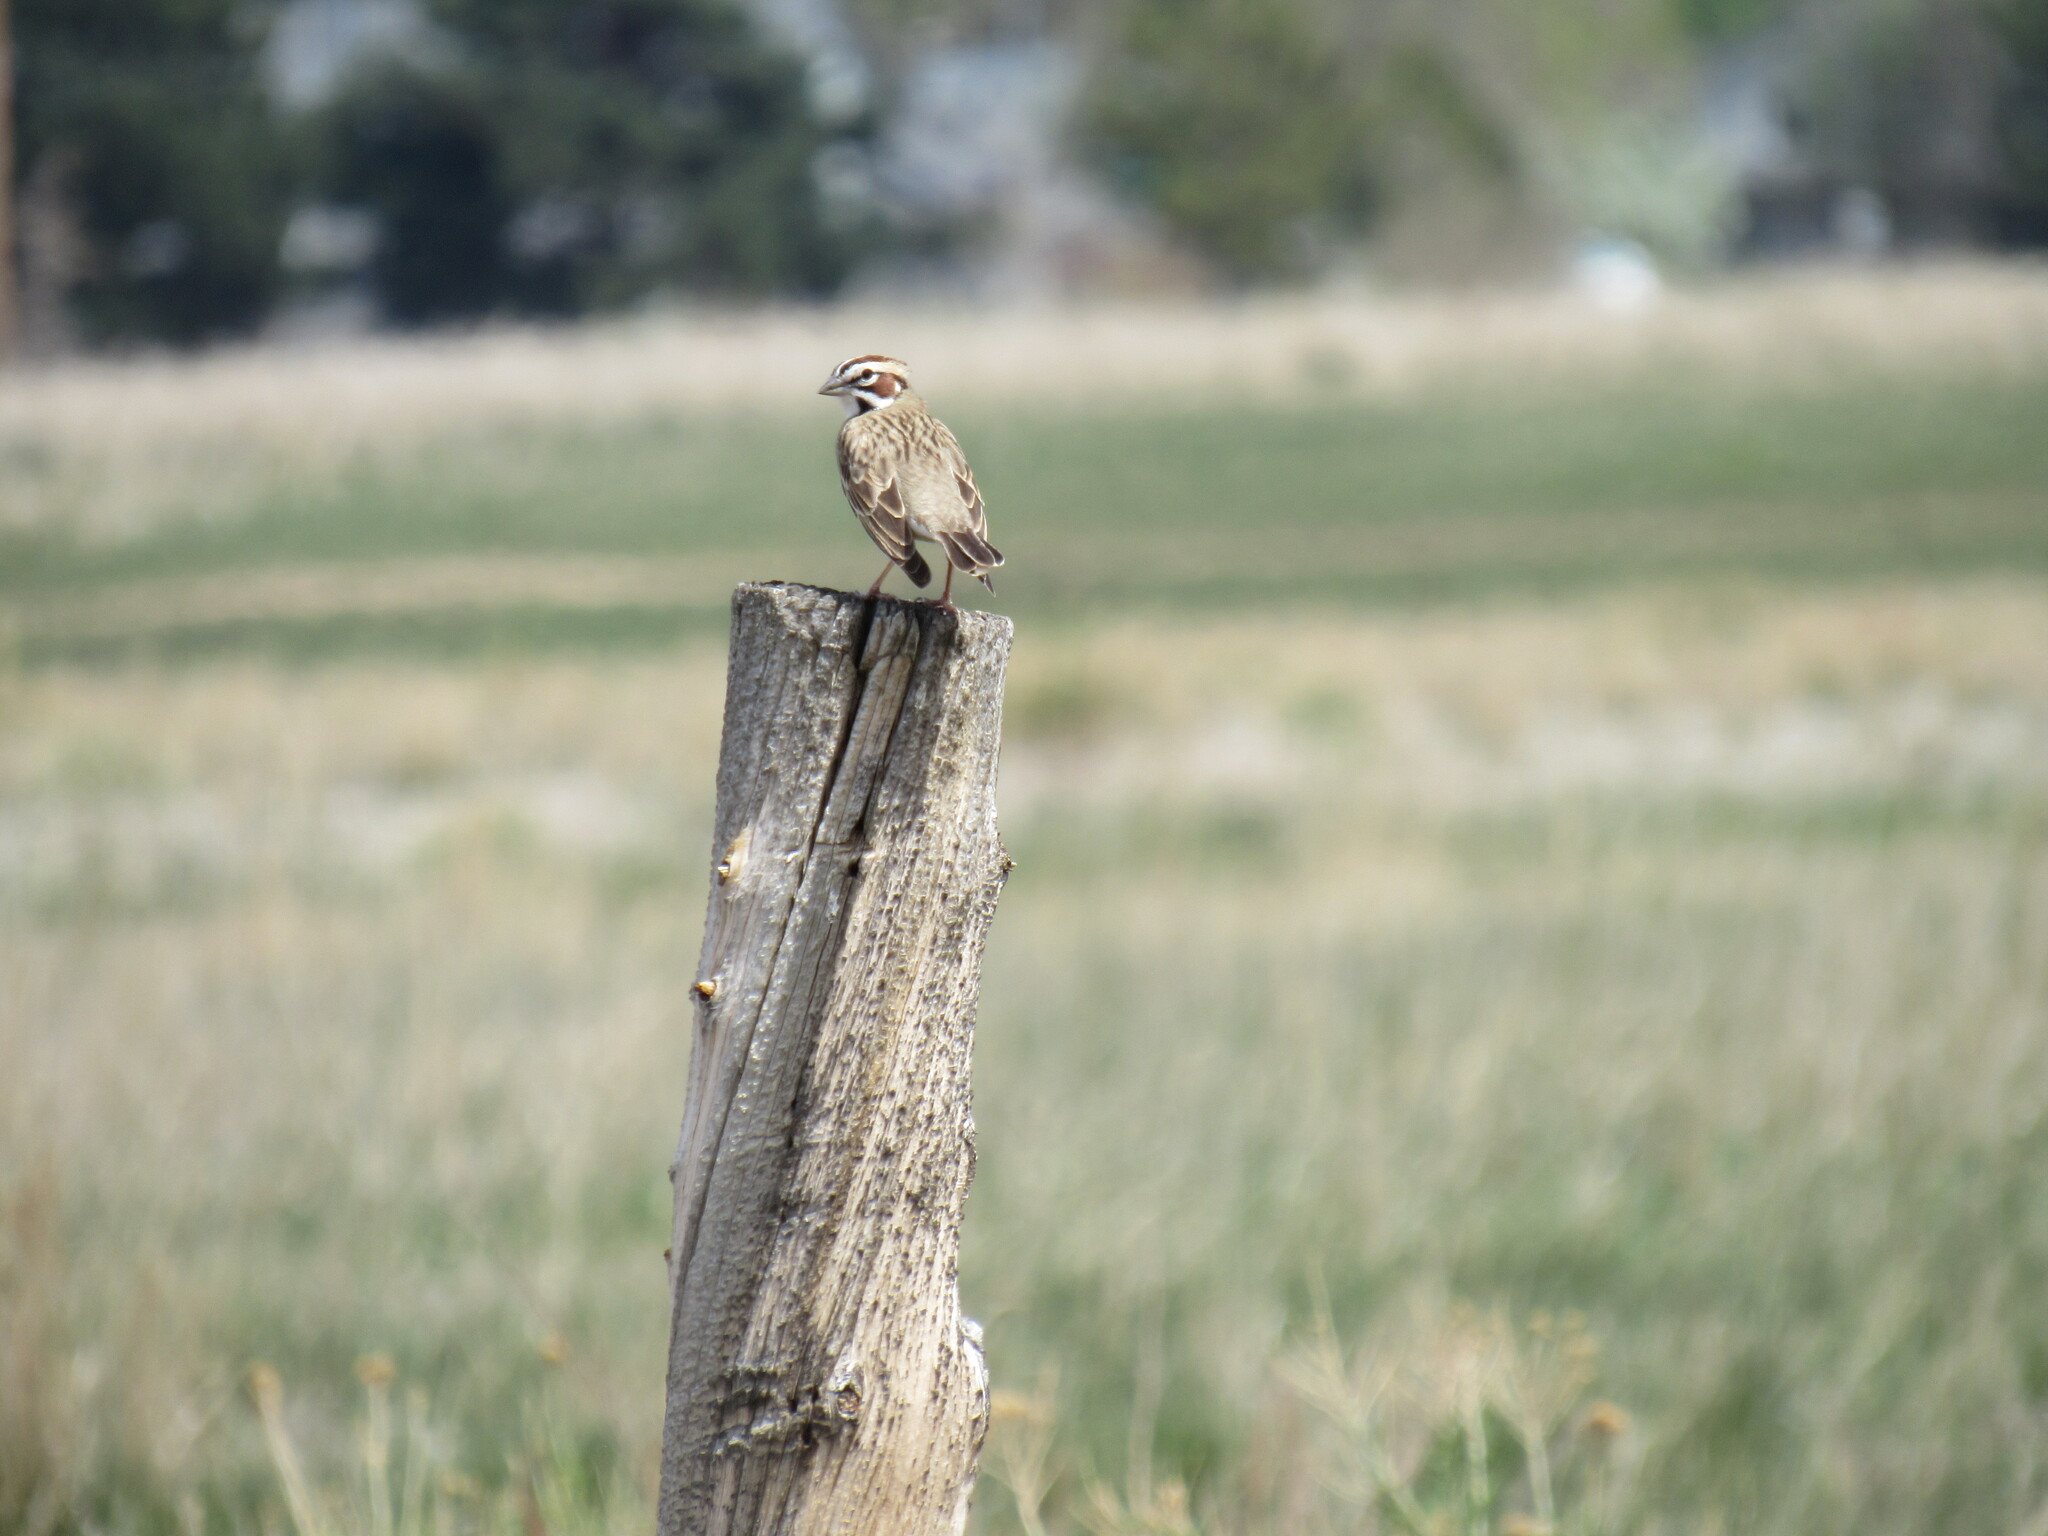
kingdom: Animalia
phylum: Chordata
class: Aves
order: Passeriformes
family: Passerellidae
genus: Chondestes
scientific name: Chondestes grammacus
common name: Lark sparrow
